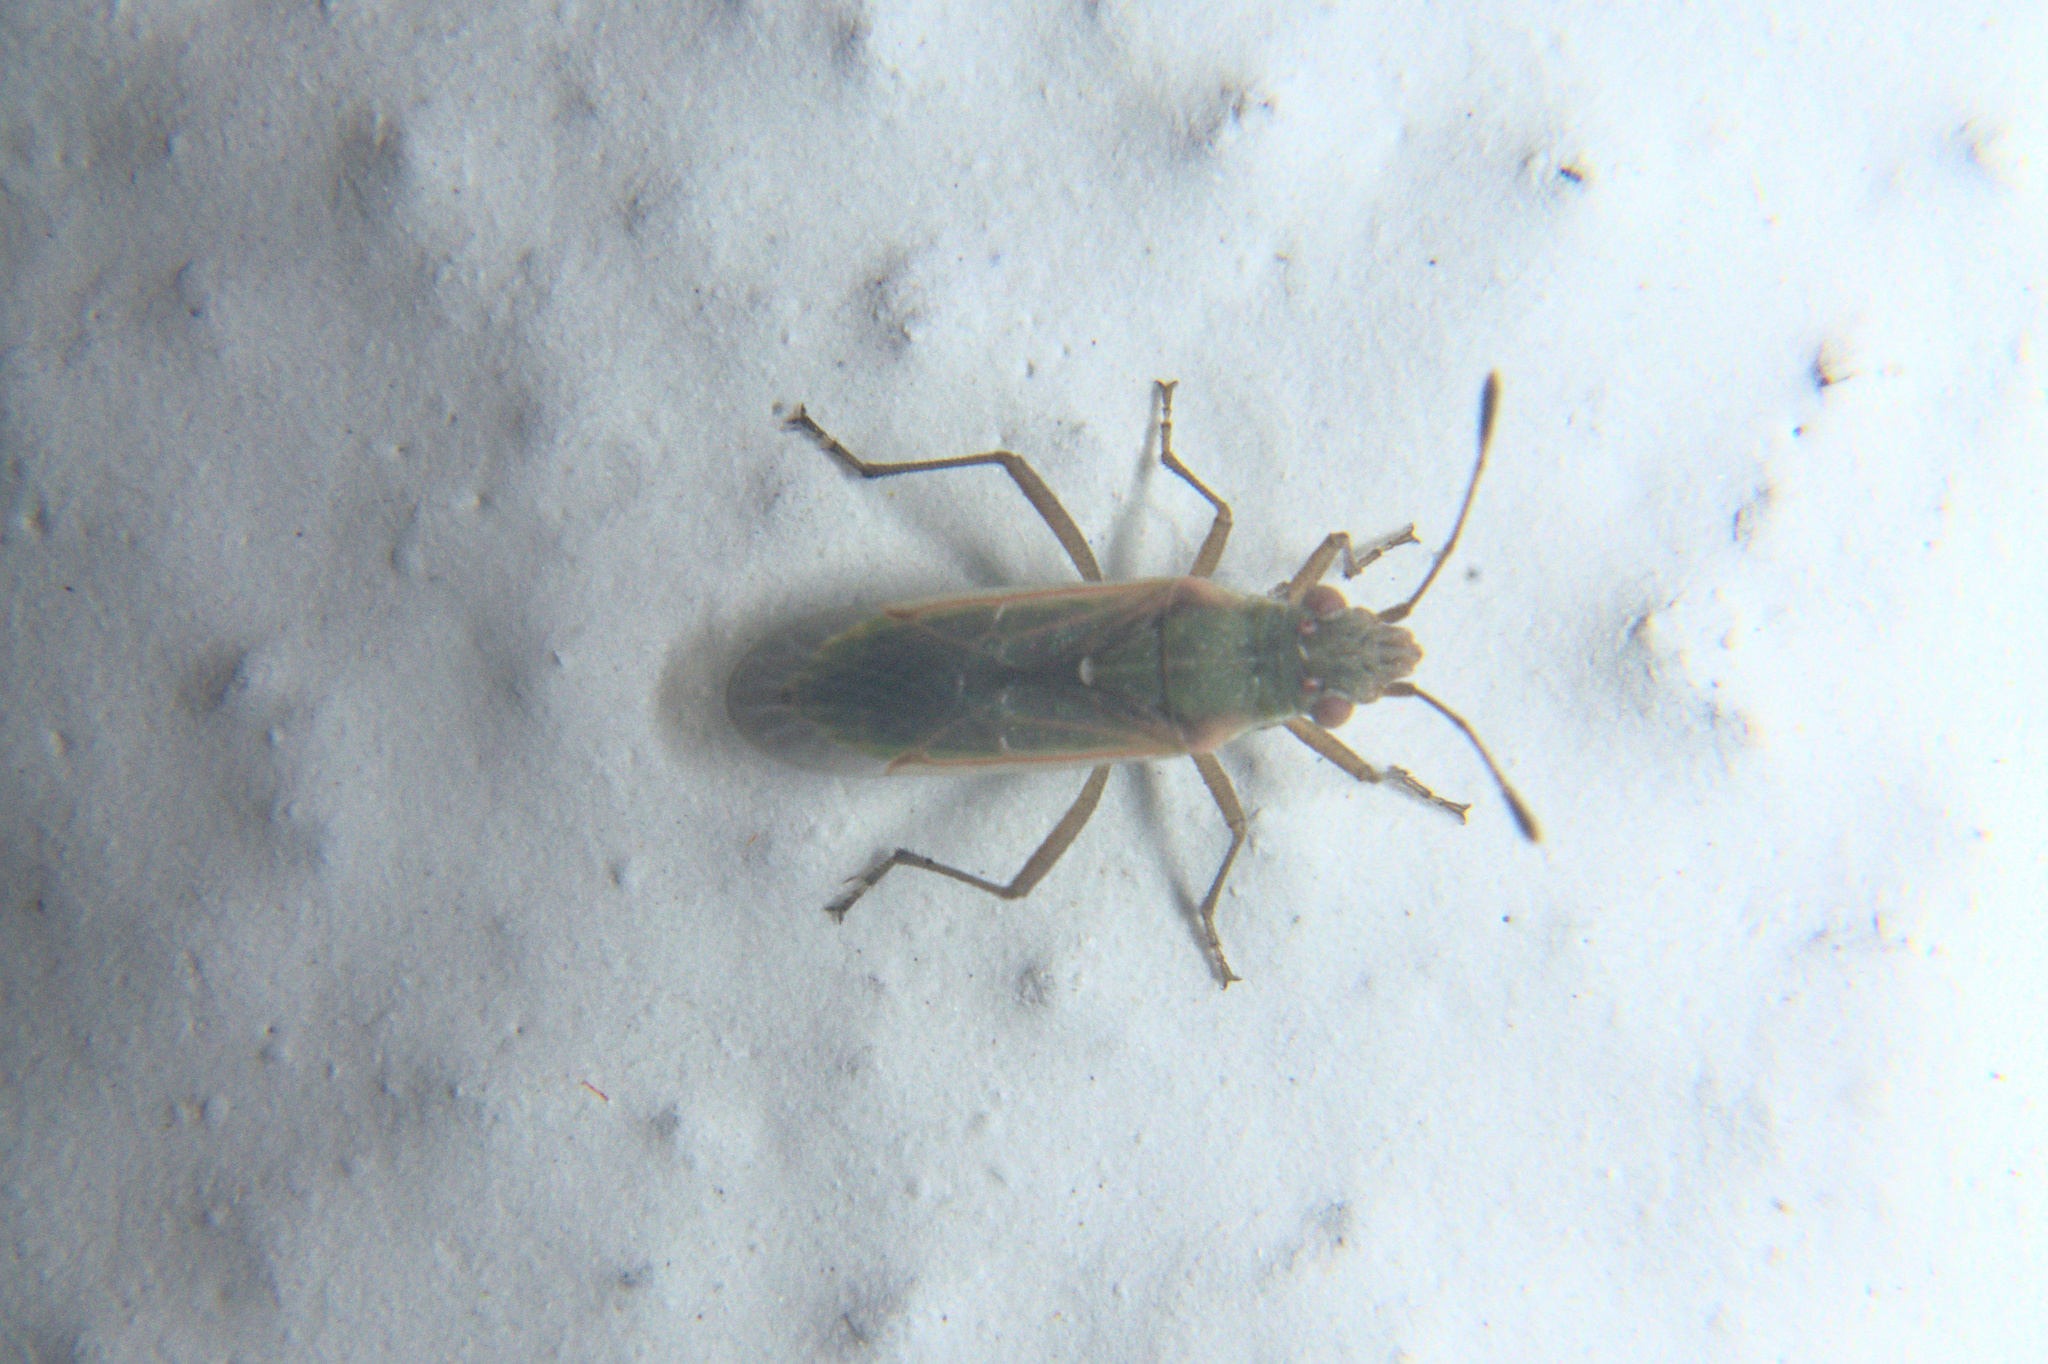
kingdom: Animalia
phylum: Arthropoda
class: Insecta
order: Hemiptera
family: Rhopalidae
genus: Agraphopus
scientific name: Agraphopus lethierryi
